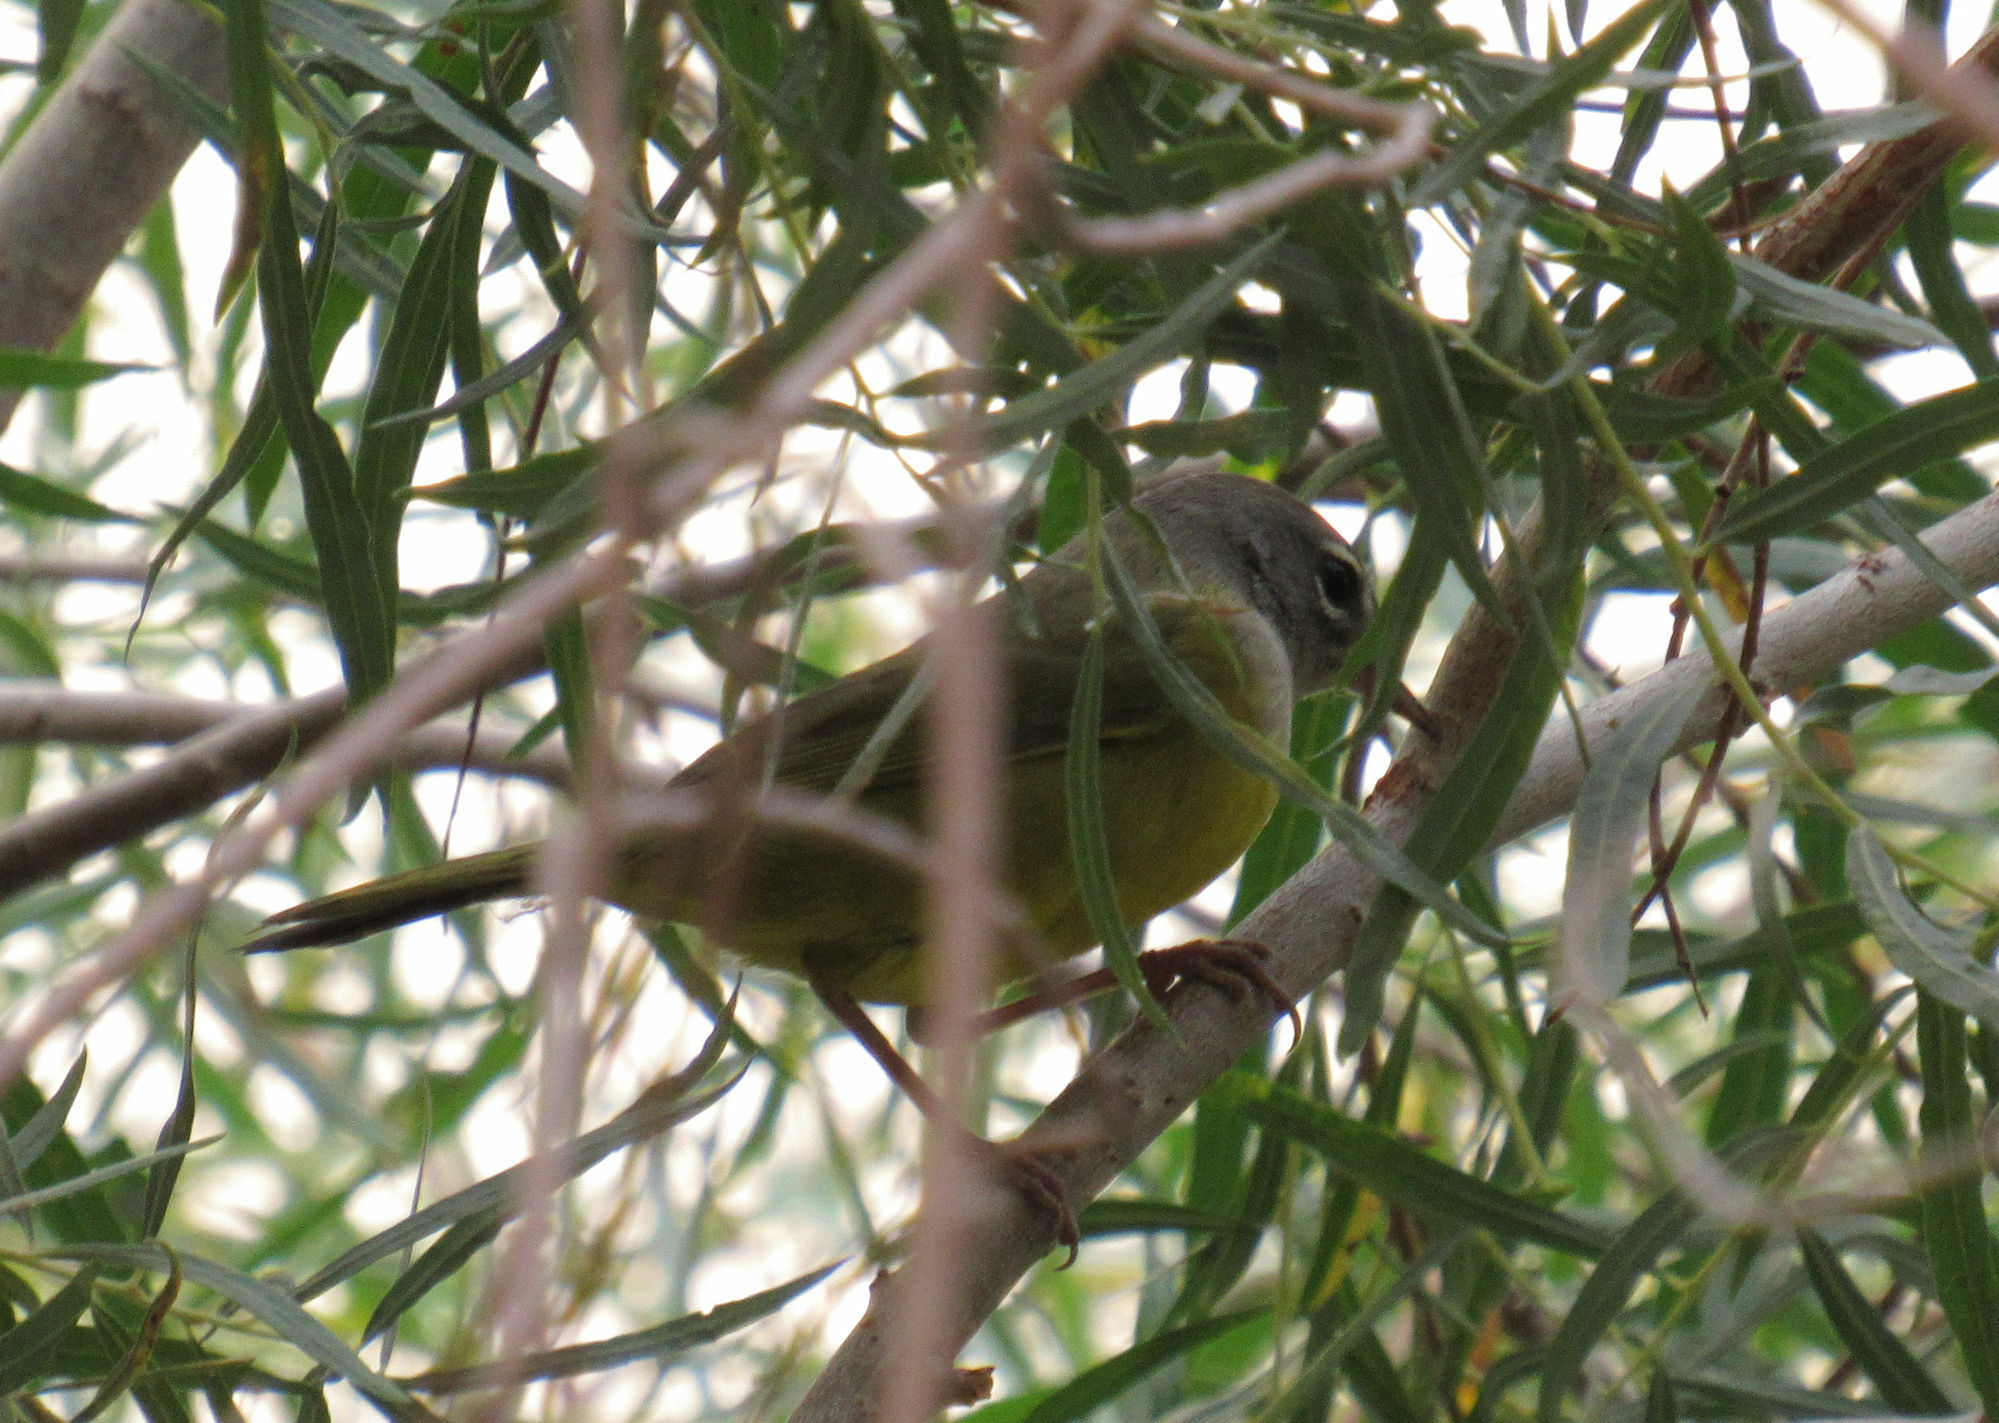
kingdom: Animalia
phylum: Chordata
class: Aves
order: Passeriformes
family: Parulidae
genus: Geothlypis
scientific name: Geothlypis tolmiei
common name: Macgillivray's warbler
